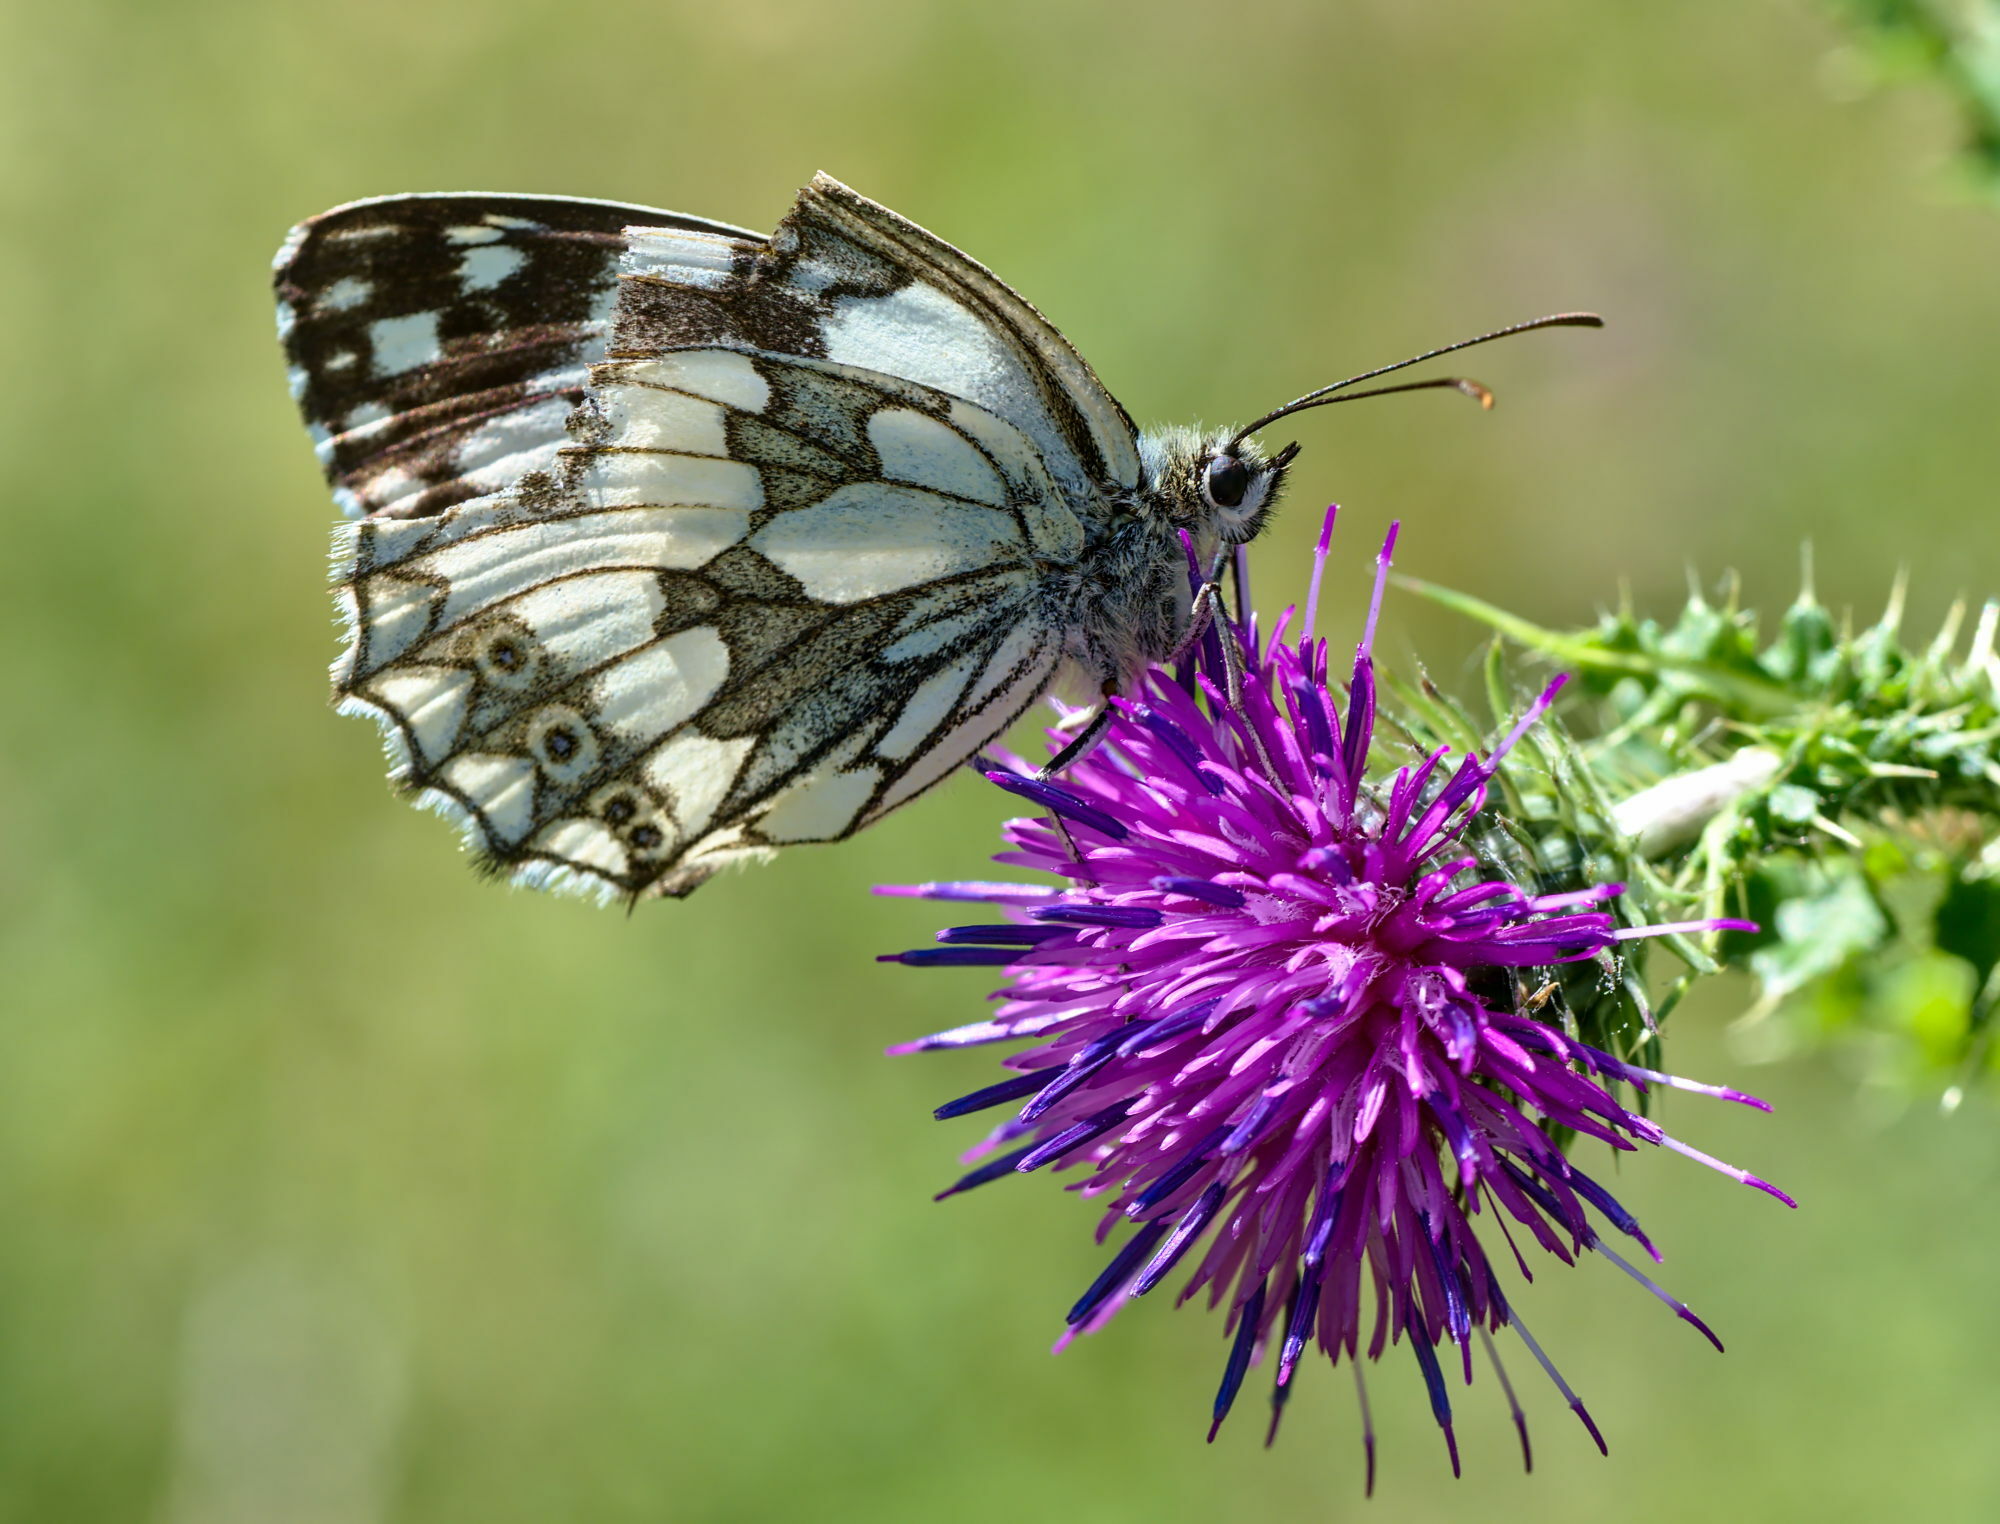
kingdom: Animalia
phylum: Arthropoda
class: Insecta
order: Lepidoptera
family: Nymphalidae
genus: Melanargia
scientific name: Melanargia galathea
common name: Marbled white
